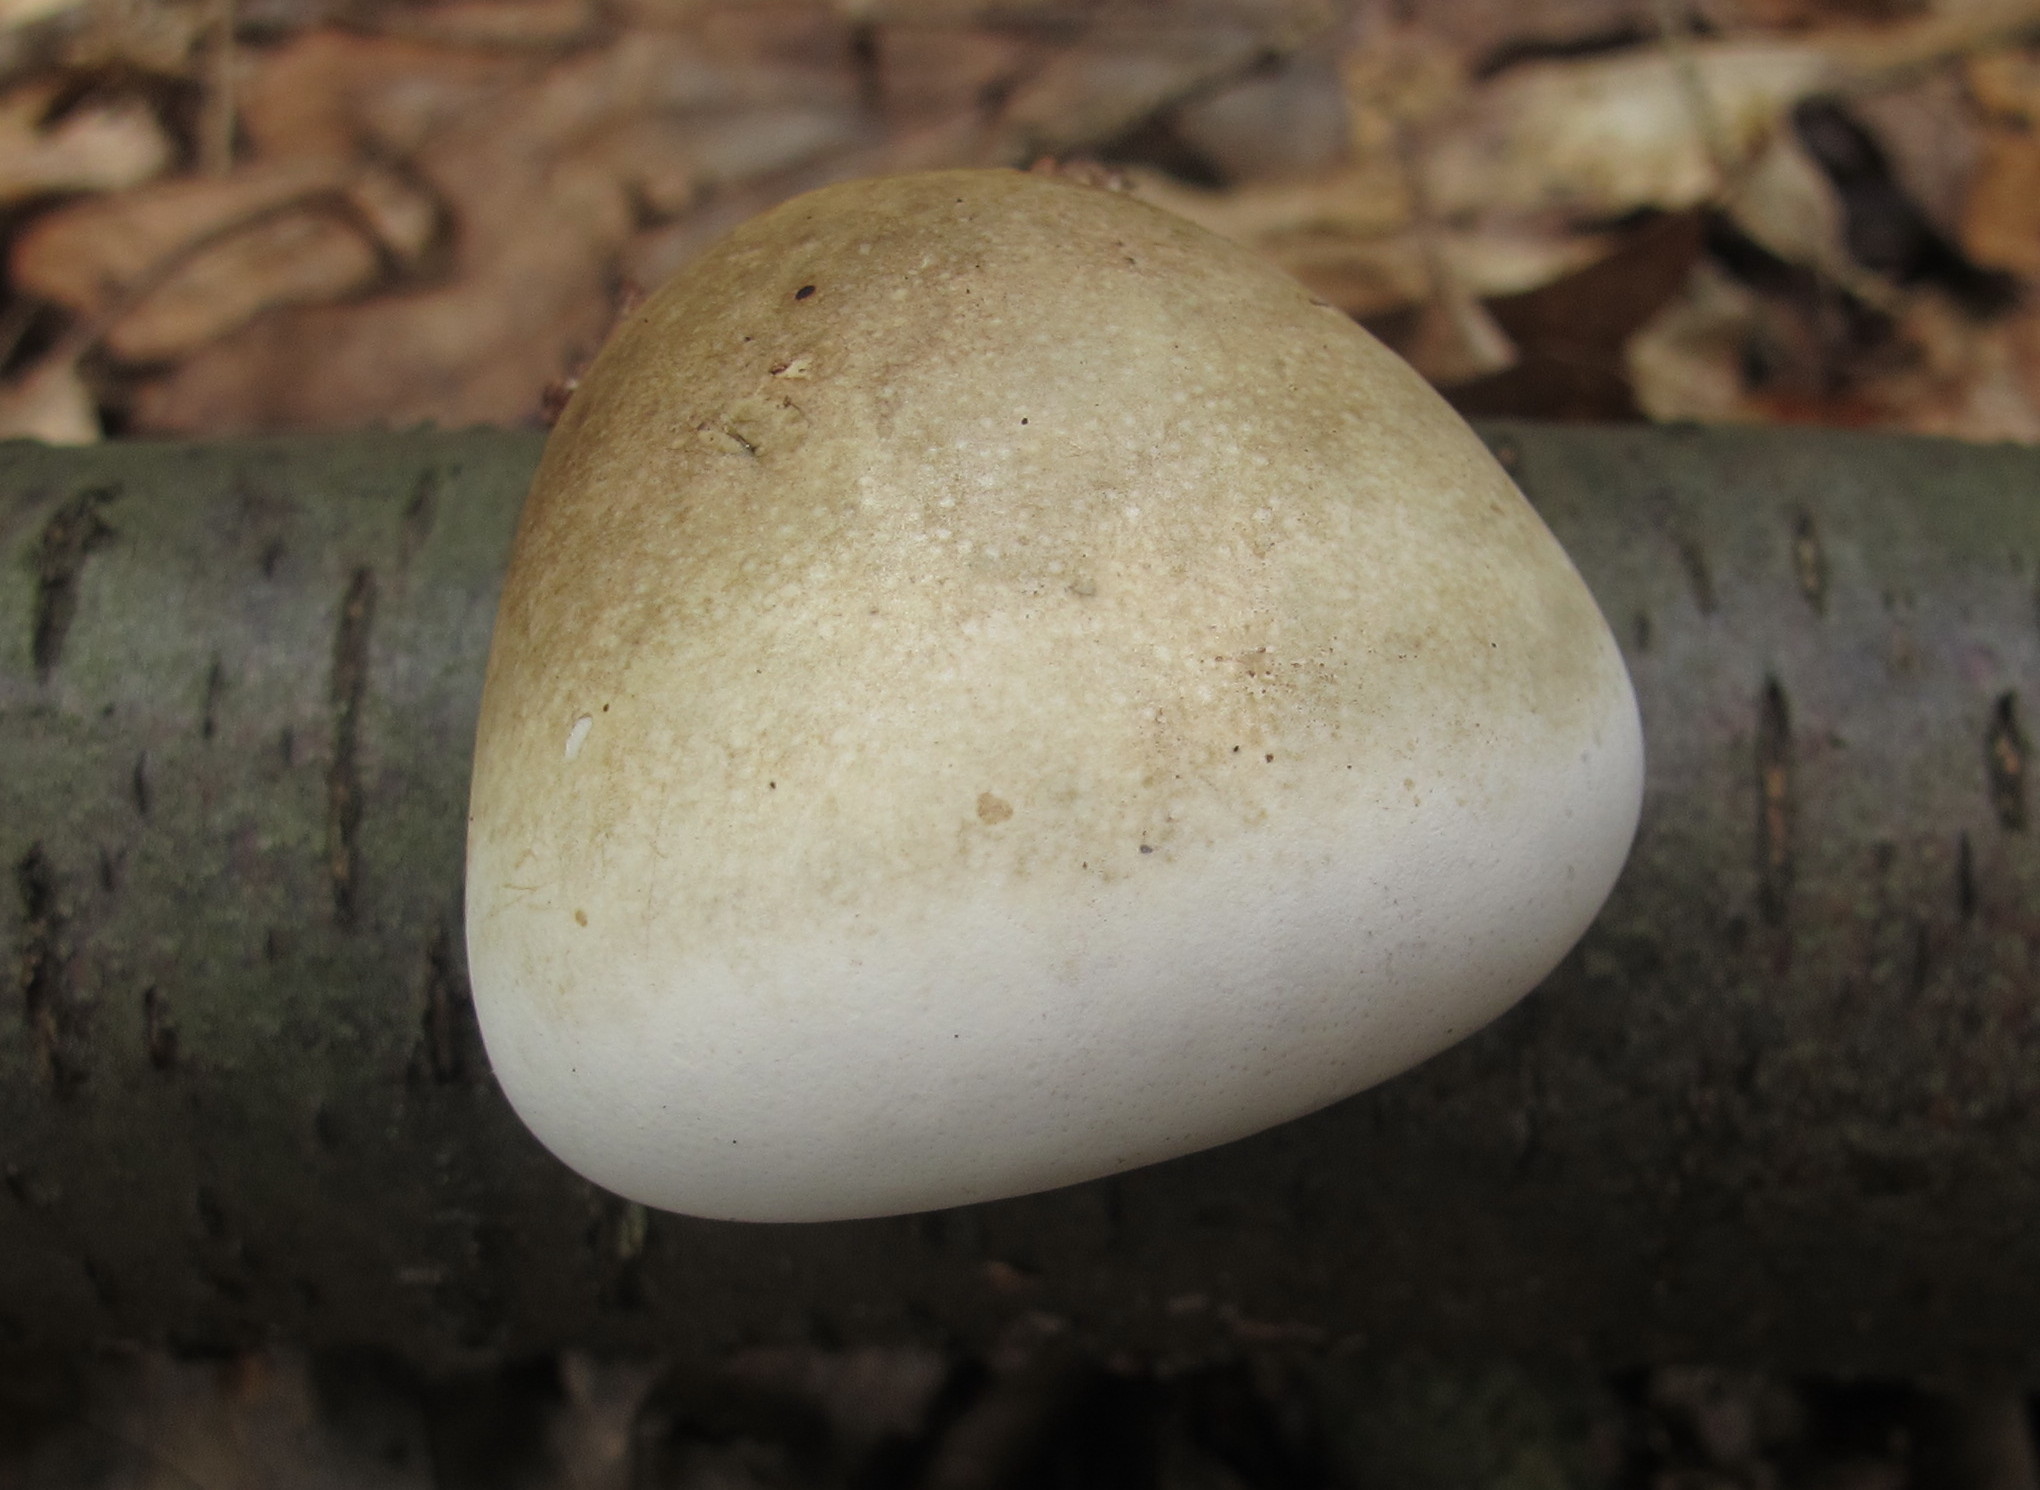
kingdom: Fungi
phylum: Basidiomycota
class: Agaricomycetes
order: Polyporales
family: Fomitopsidaceae
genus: Fomitopsis
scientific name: Fomitopsis betulina
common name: Birch polypore
